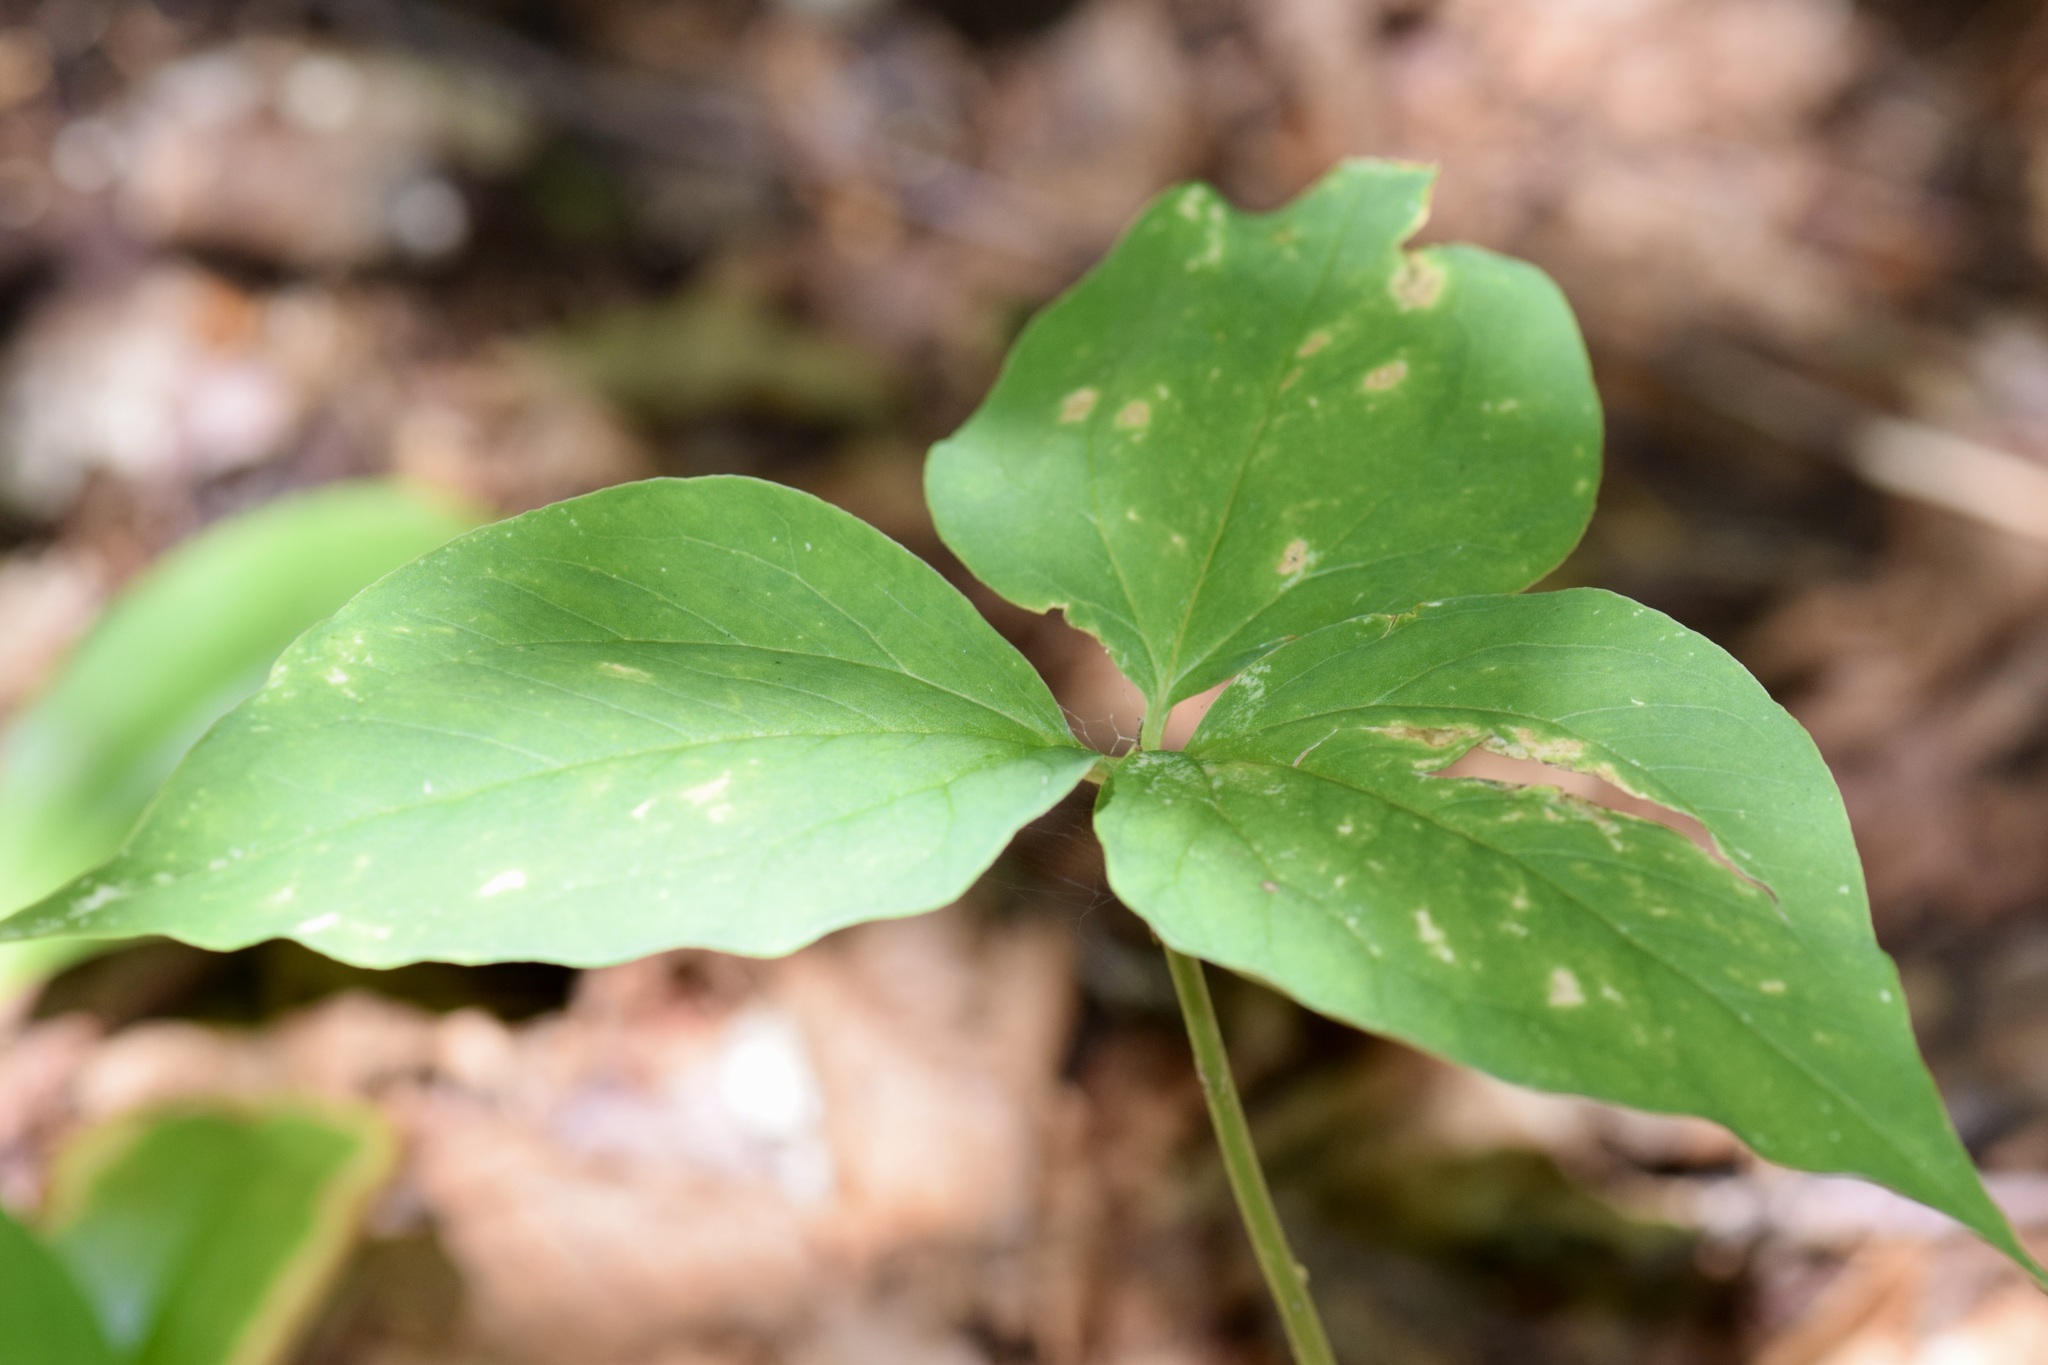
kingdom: Plantae
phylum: Tracheophyta
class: Liliopsida
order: Liliales
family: Melanthiaceae
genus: Trillium
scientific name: Trillium undulatum
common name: Paint trillium
